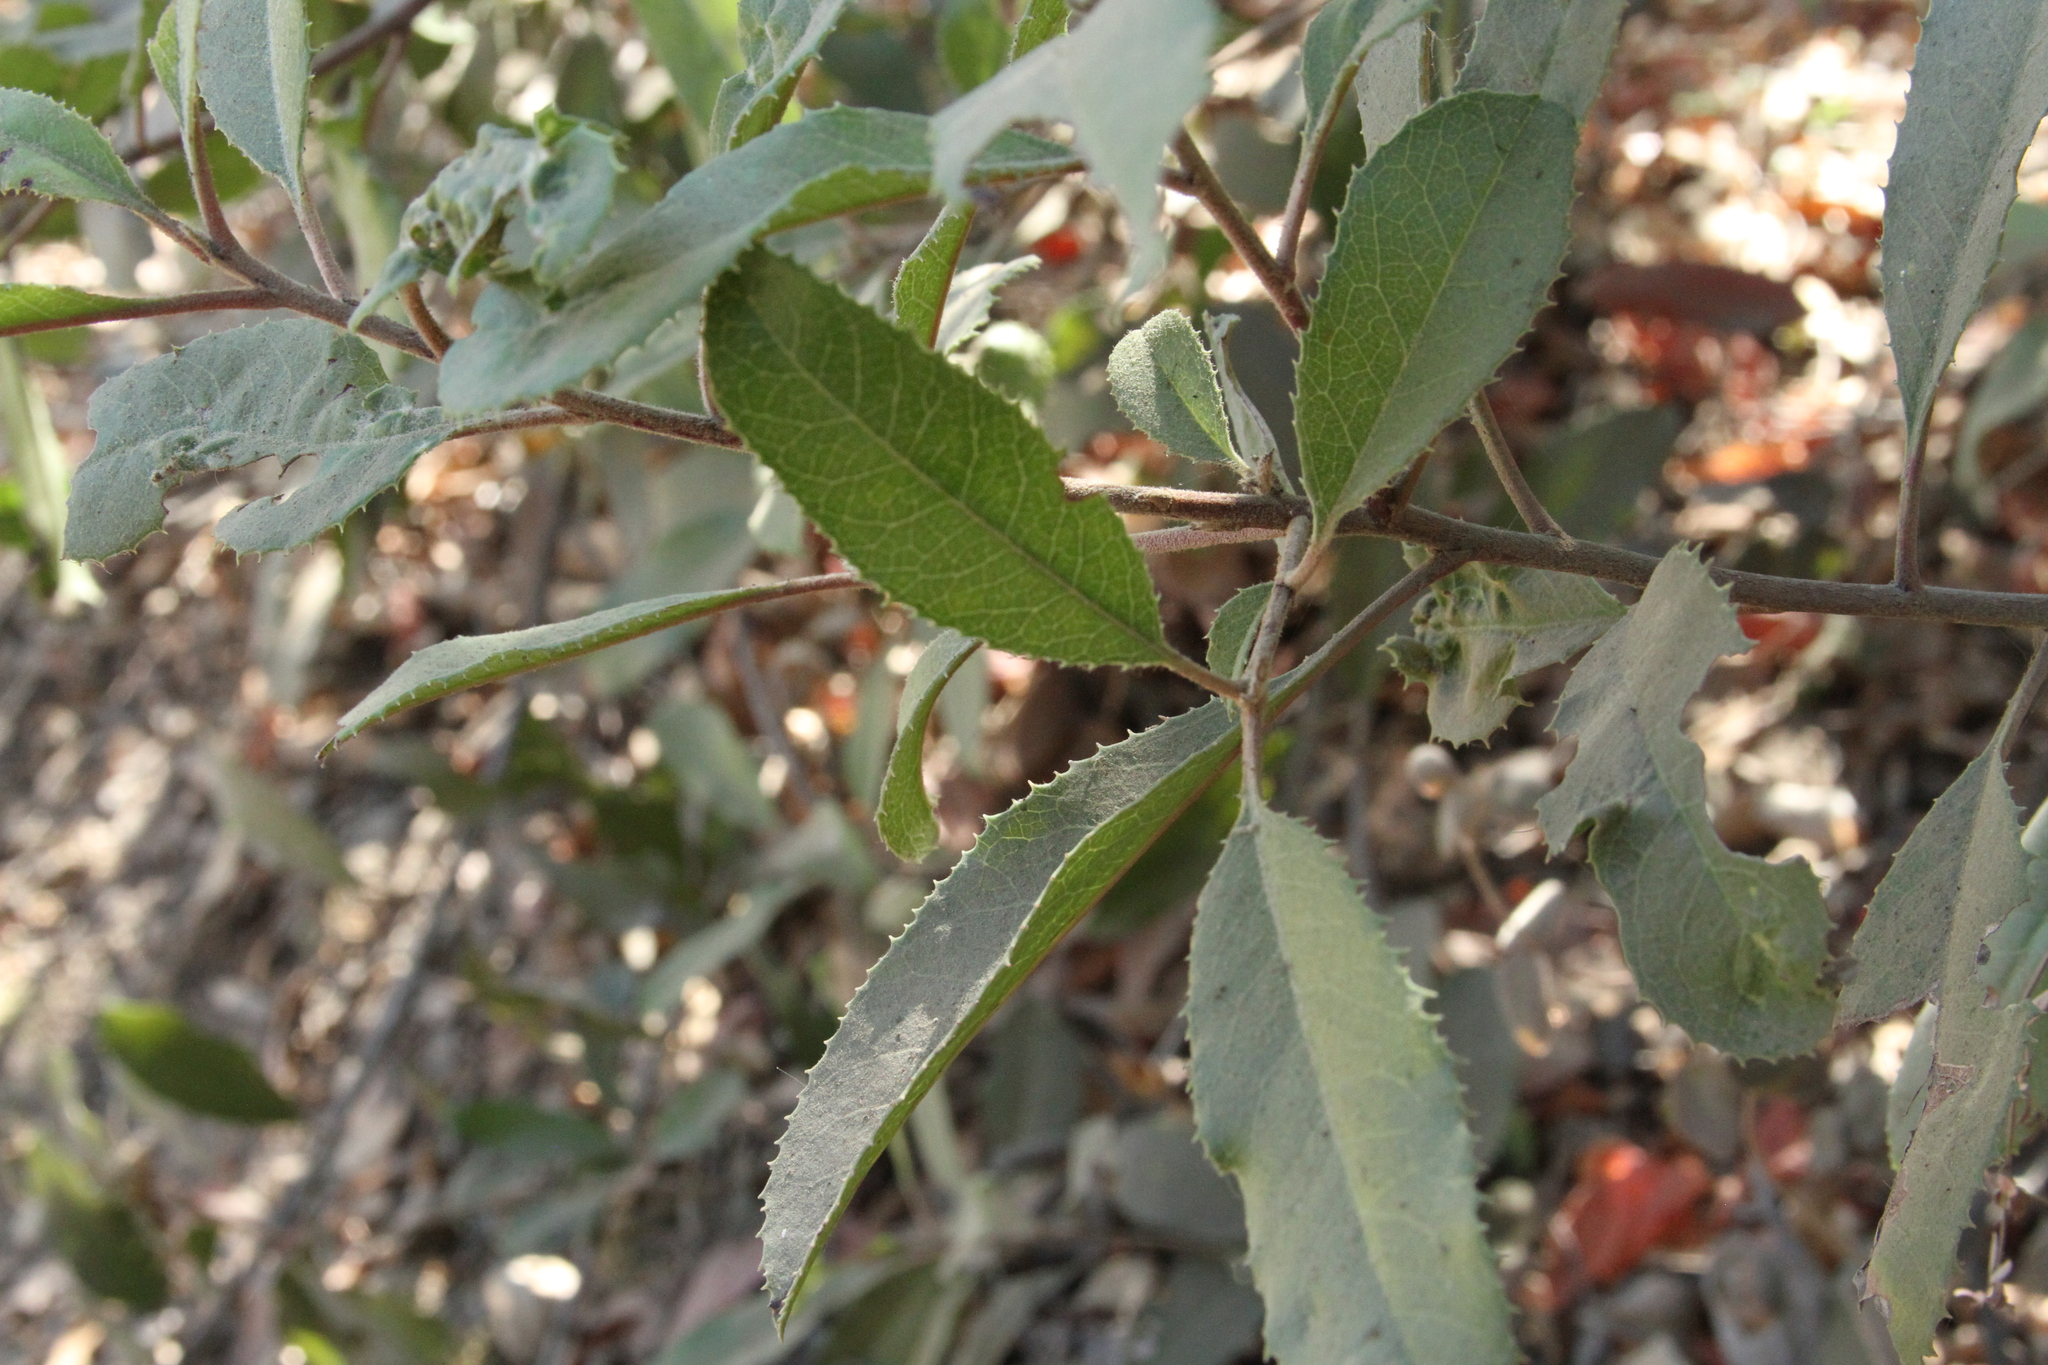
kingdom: Plantae
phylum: Tracheophyta
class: Magnoliopsida
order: Rosales
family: Rosaceae
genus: Heteromeles
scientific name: Heteromeles arbutifolia
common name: California-holly
